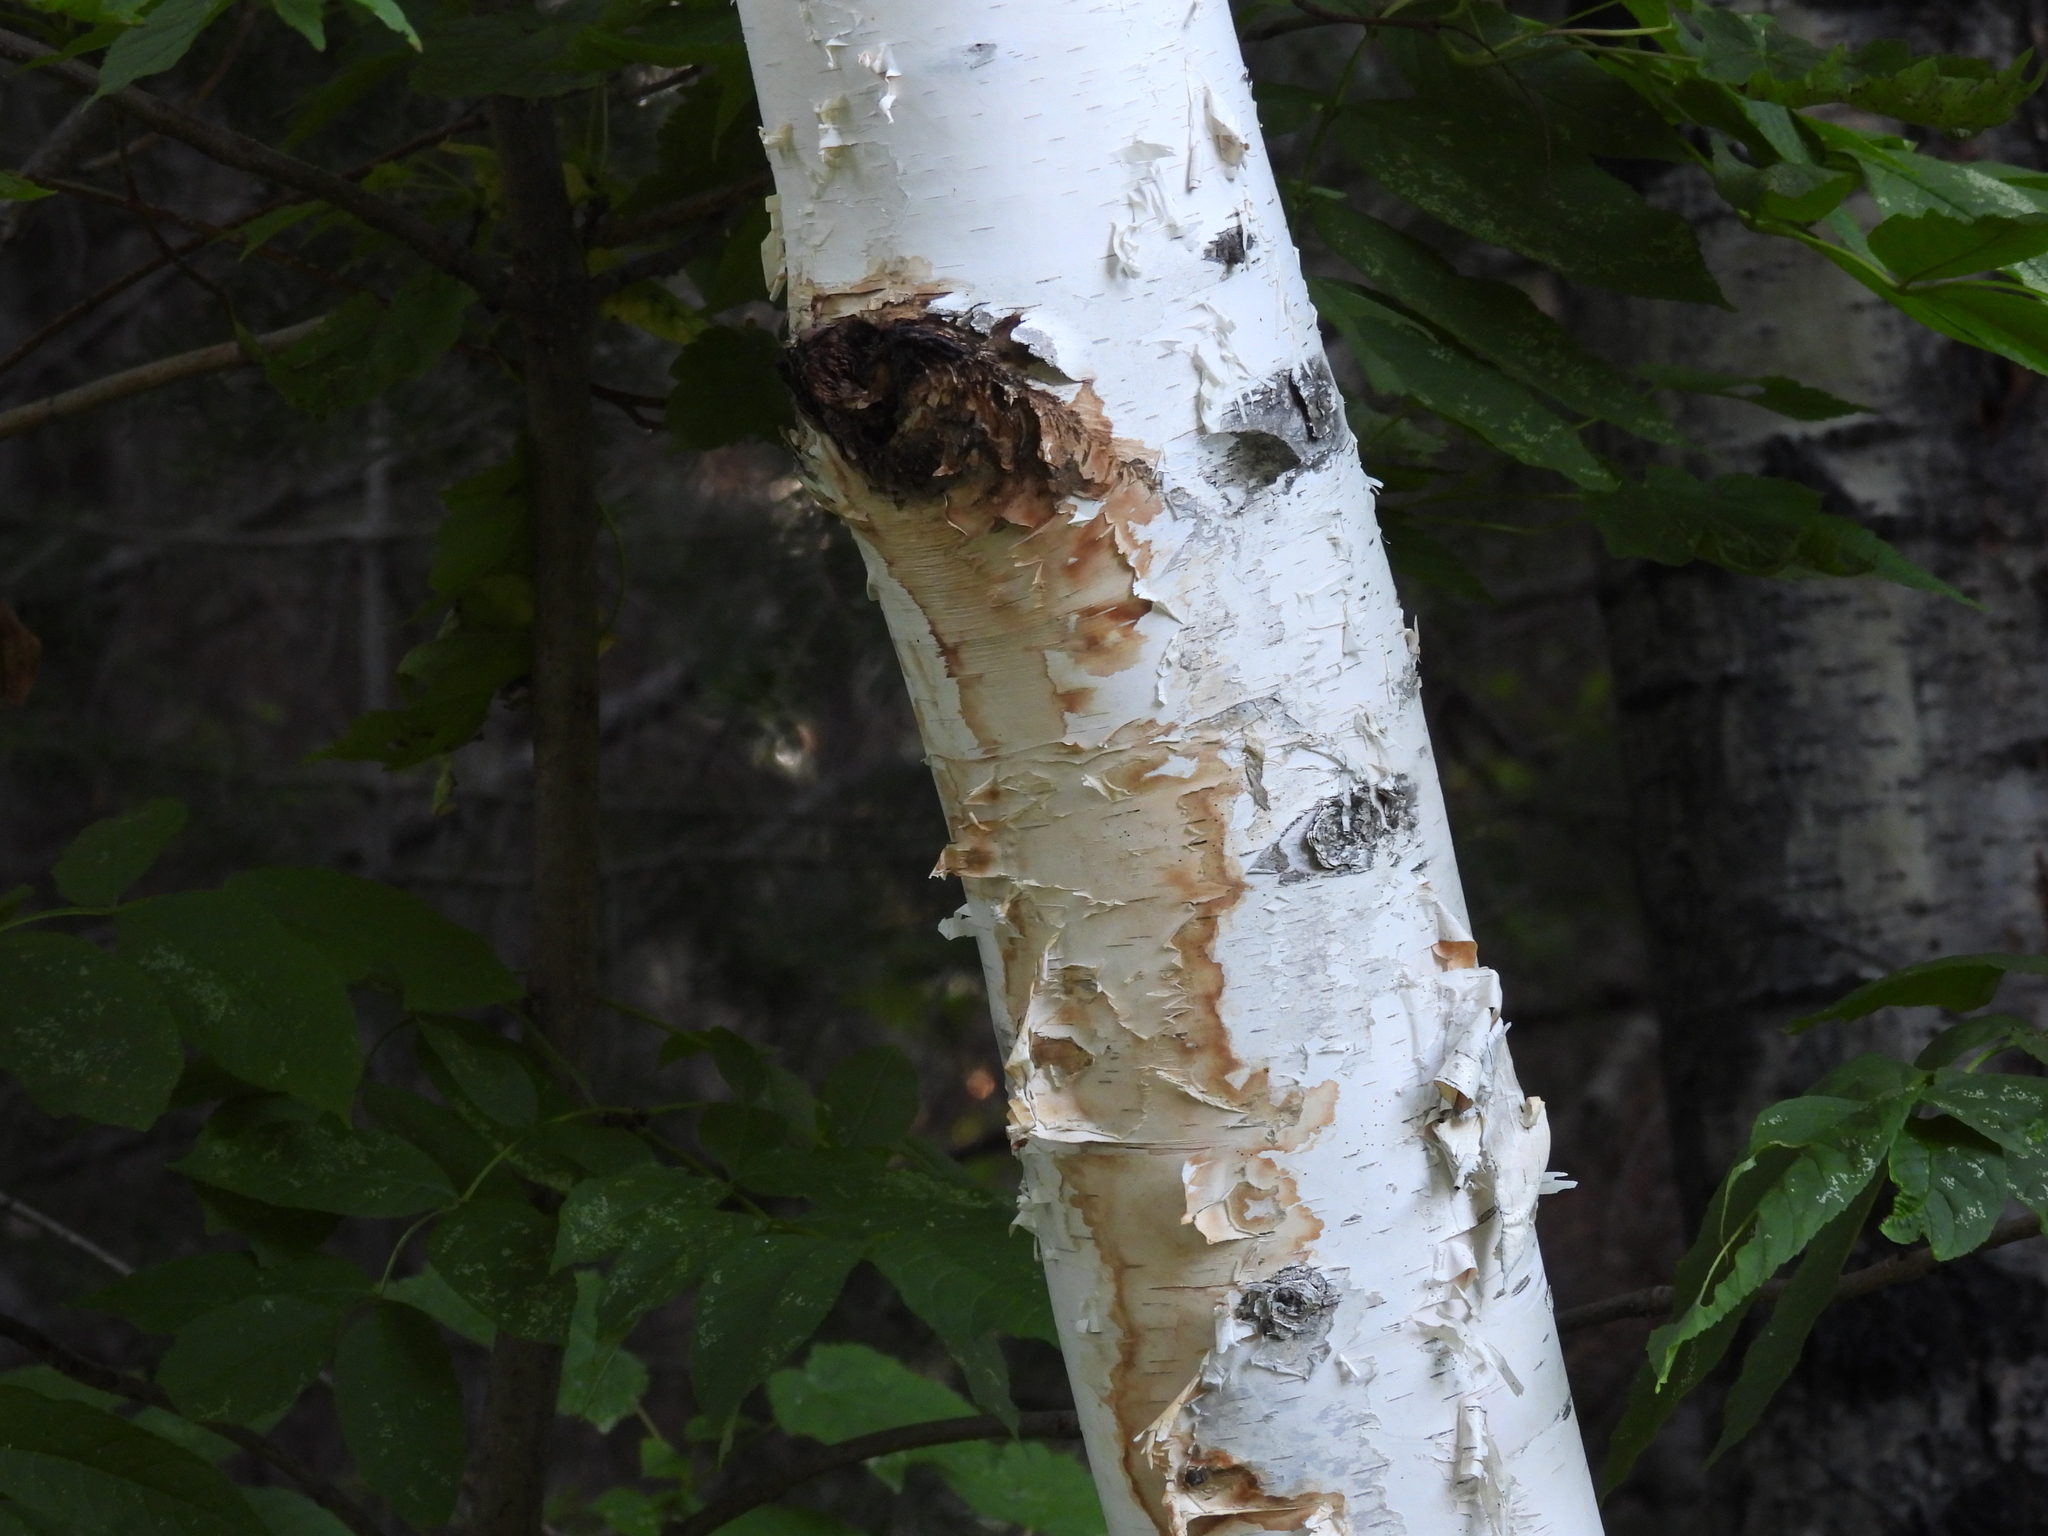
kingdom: Plantae
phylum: Tracheophyta
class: Magnoliopsida
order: Fagales
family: Betulaceae
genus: Betula
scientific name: Betula papyrifera
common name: Paper birch
